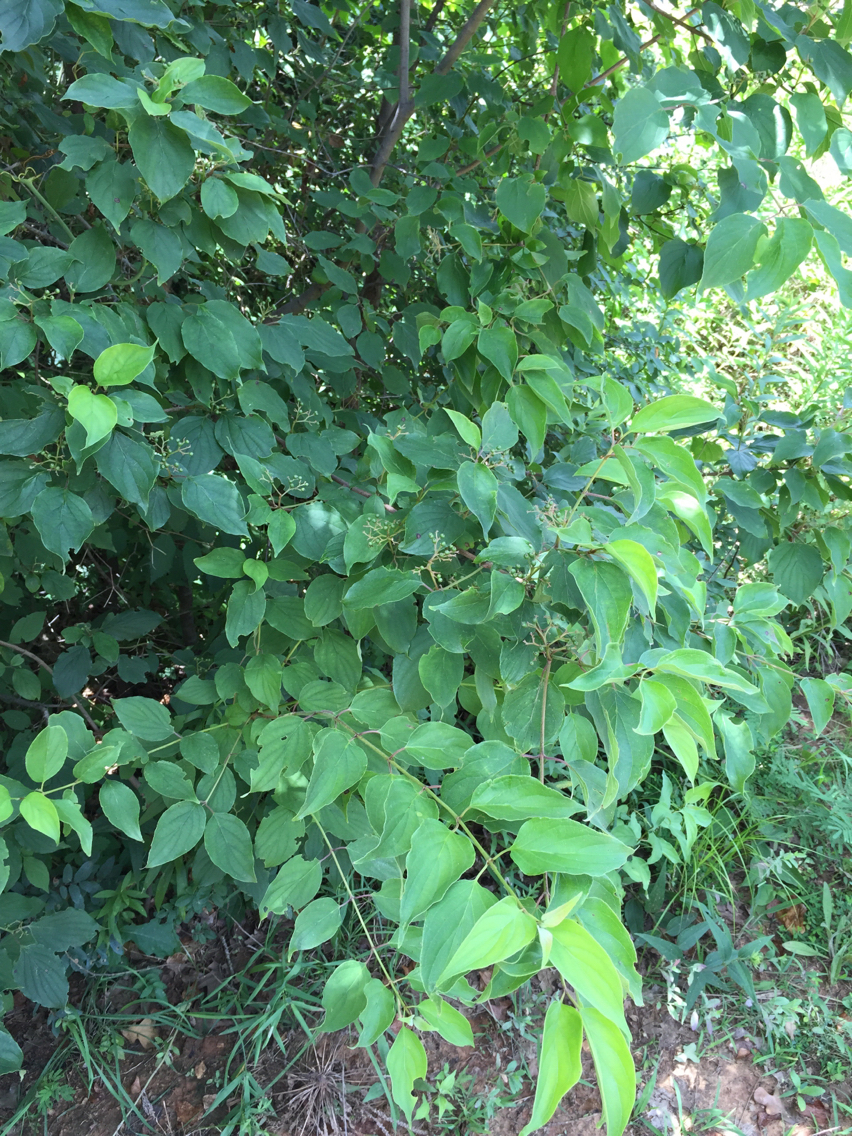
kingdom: Plantae
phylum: Tracheophyta
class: Magnoliopsida
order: Cornales
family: Cornaceae
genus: Cornus
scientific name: Cornus drummondii
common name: Rough-leaf dogwood
